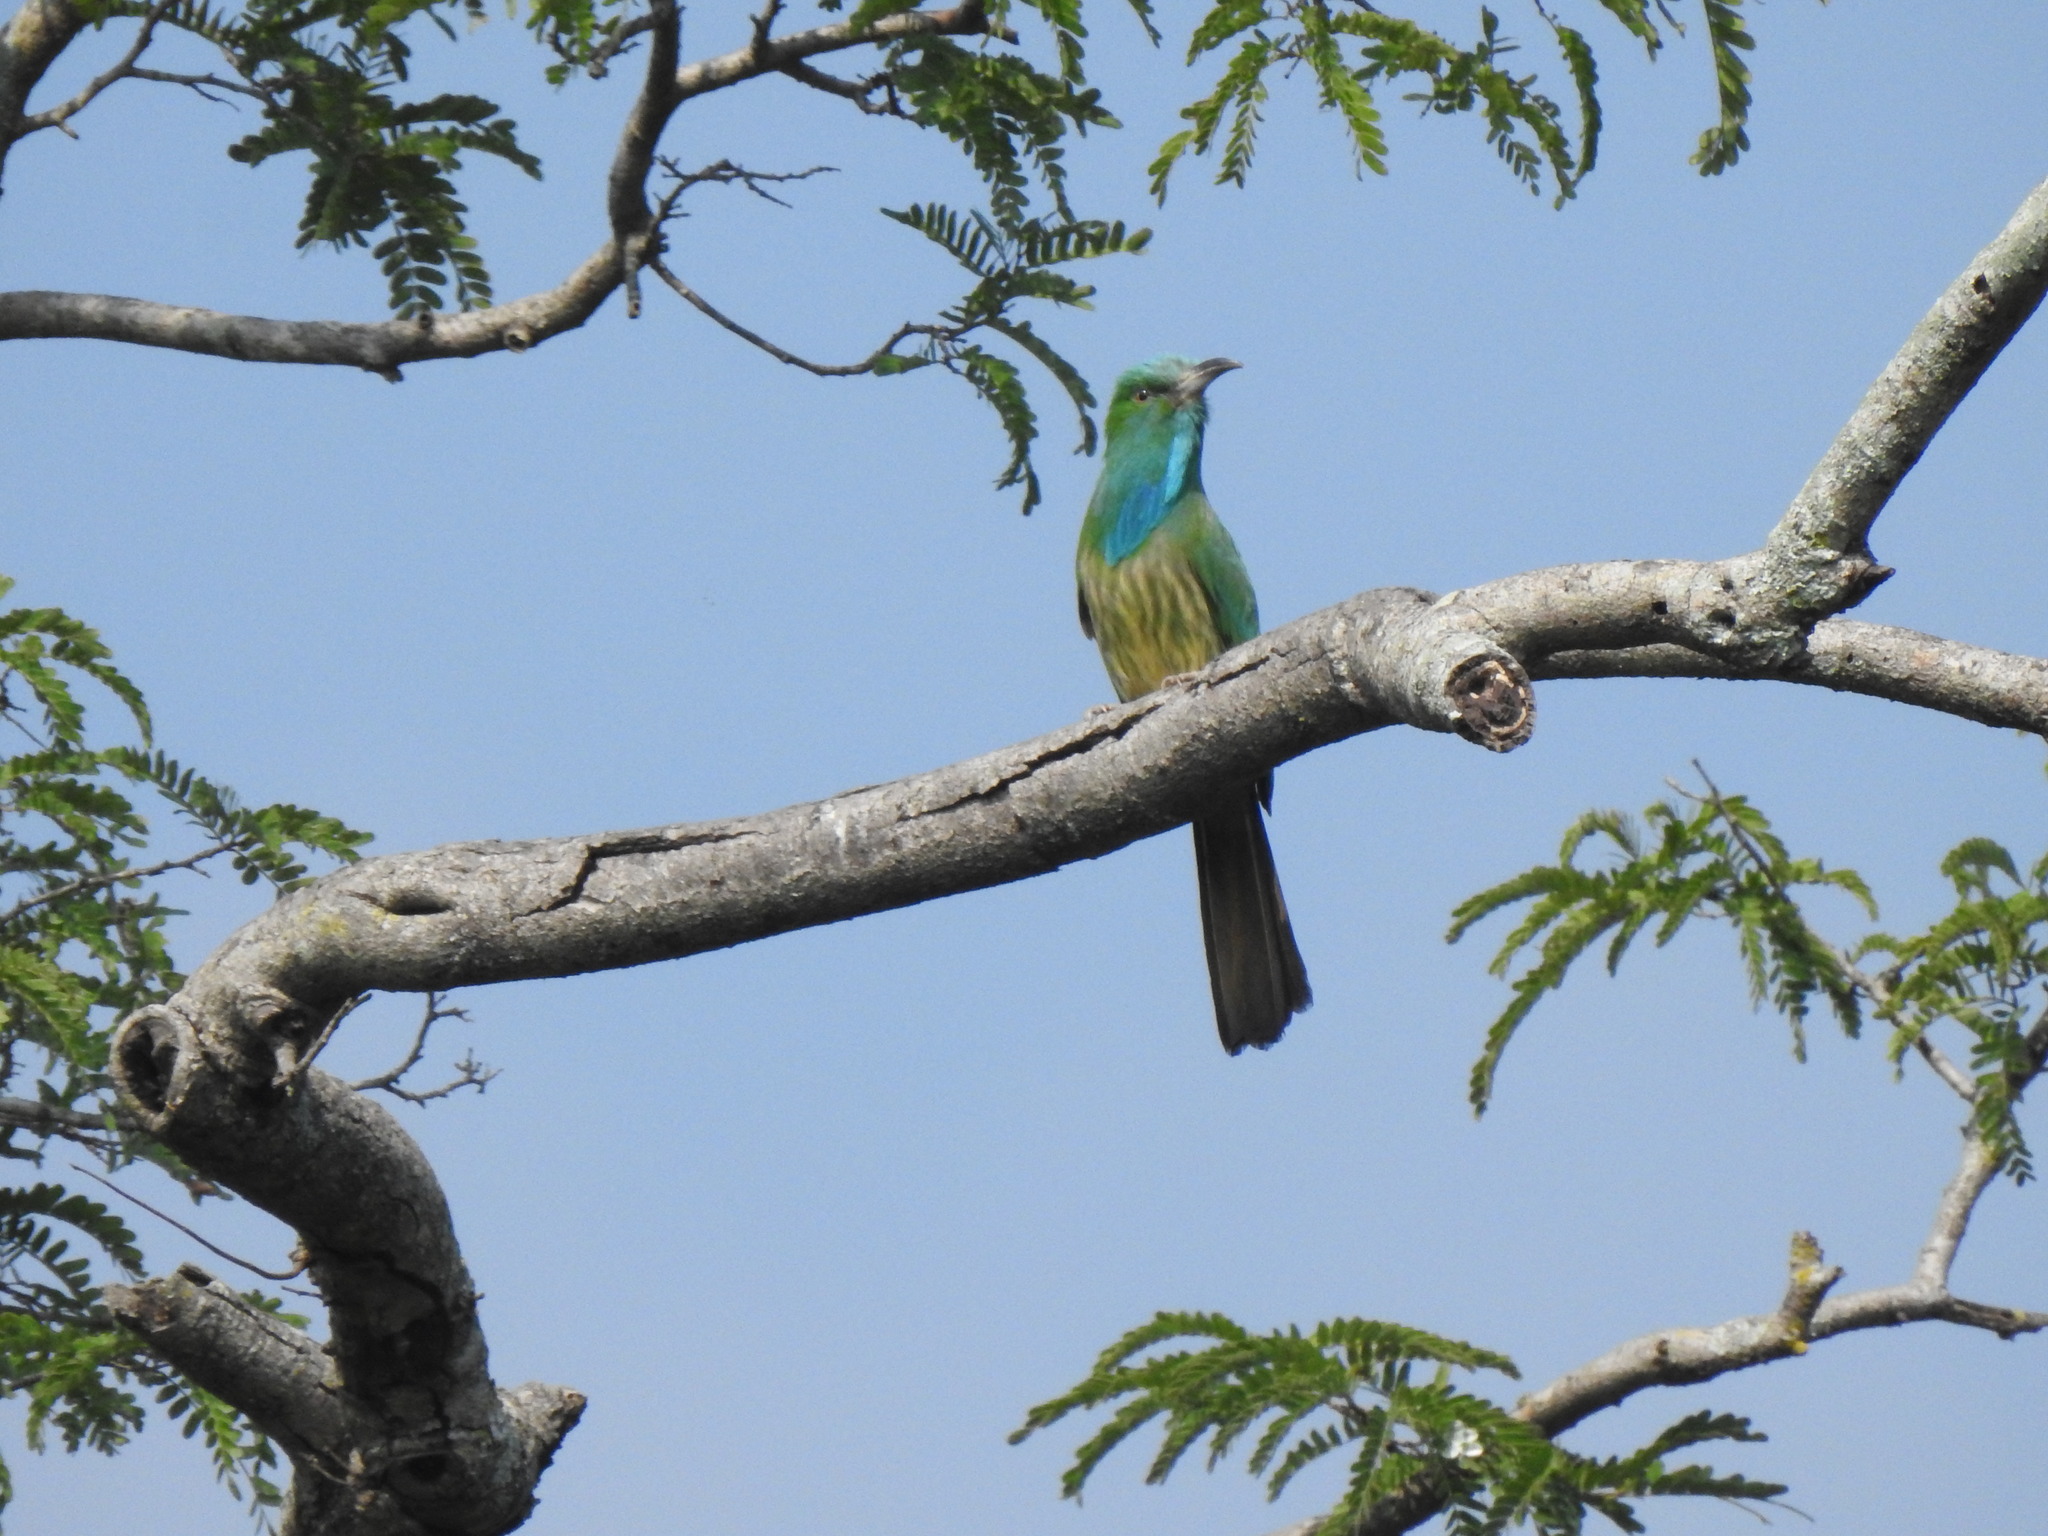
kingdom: Animalia
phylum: Chordata
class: Aves
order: Coraciiformes
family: Meropidae
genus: Nyctyornis
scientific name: Nyctyornis athertoni
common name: Blue-bearded bee-eater
